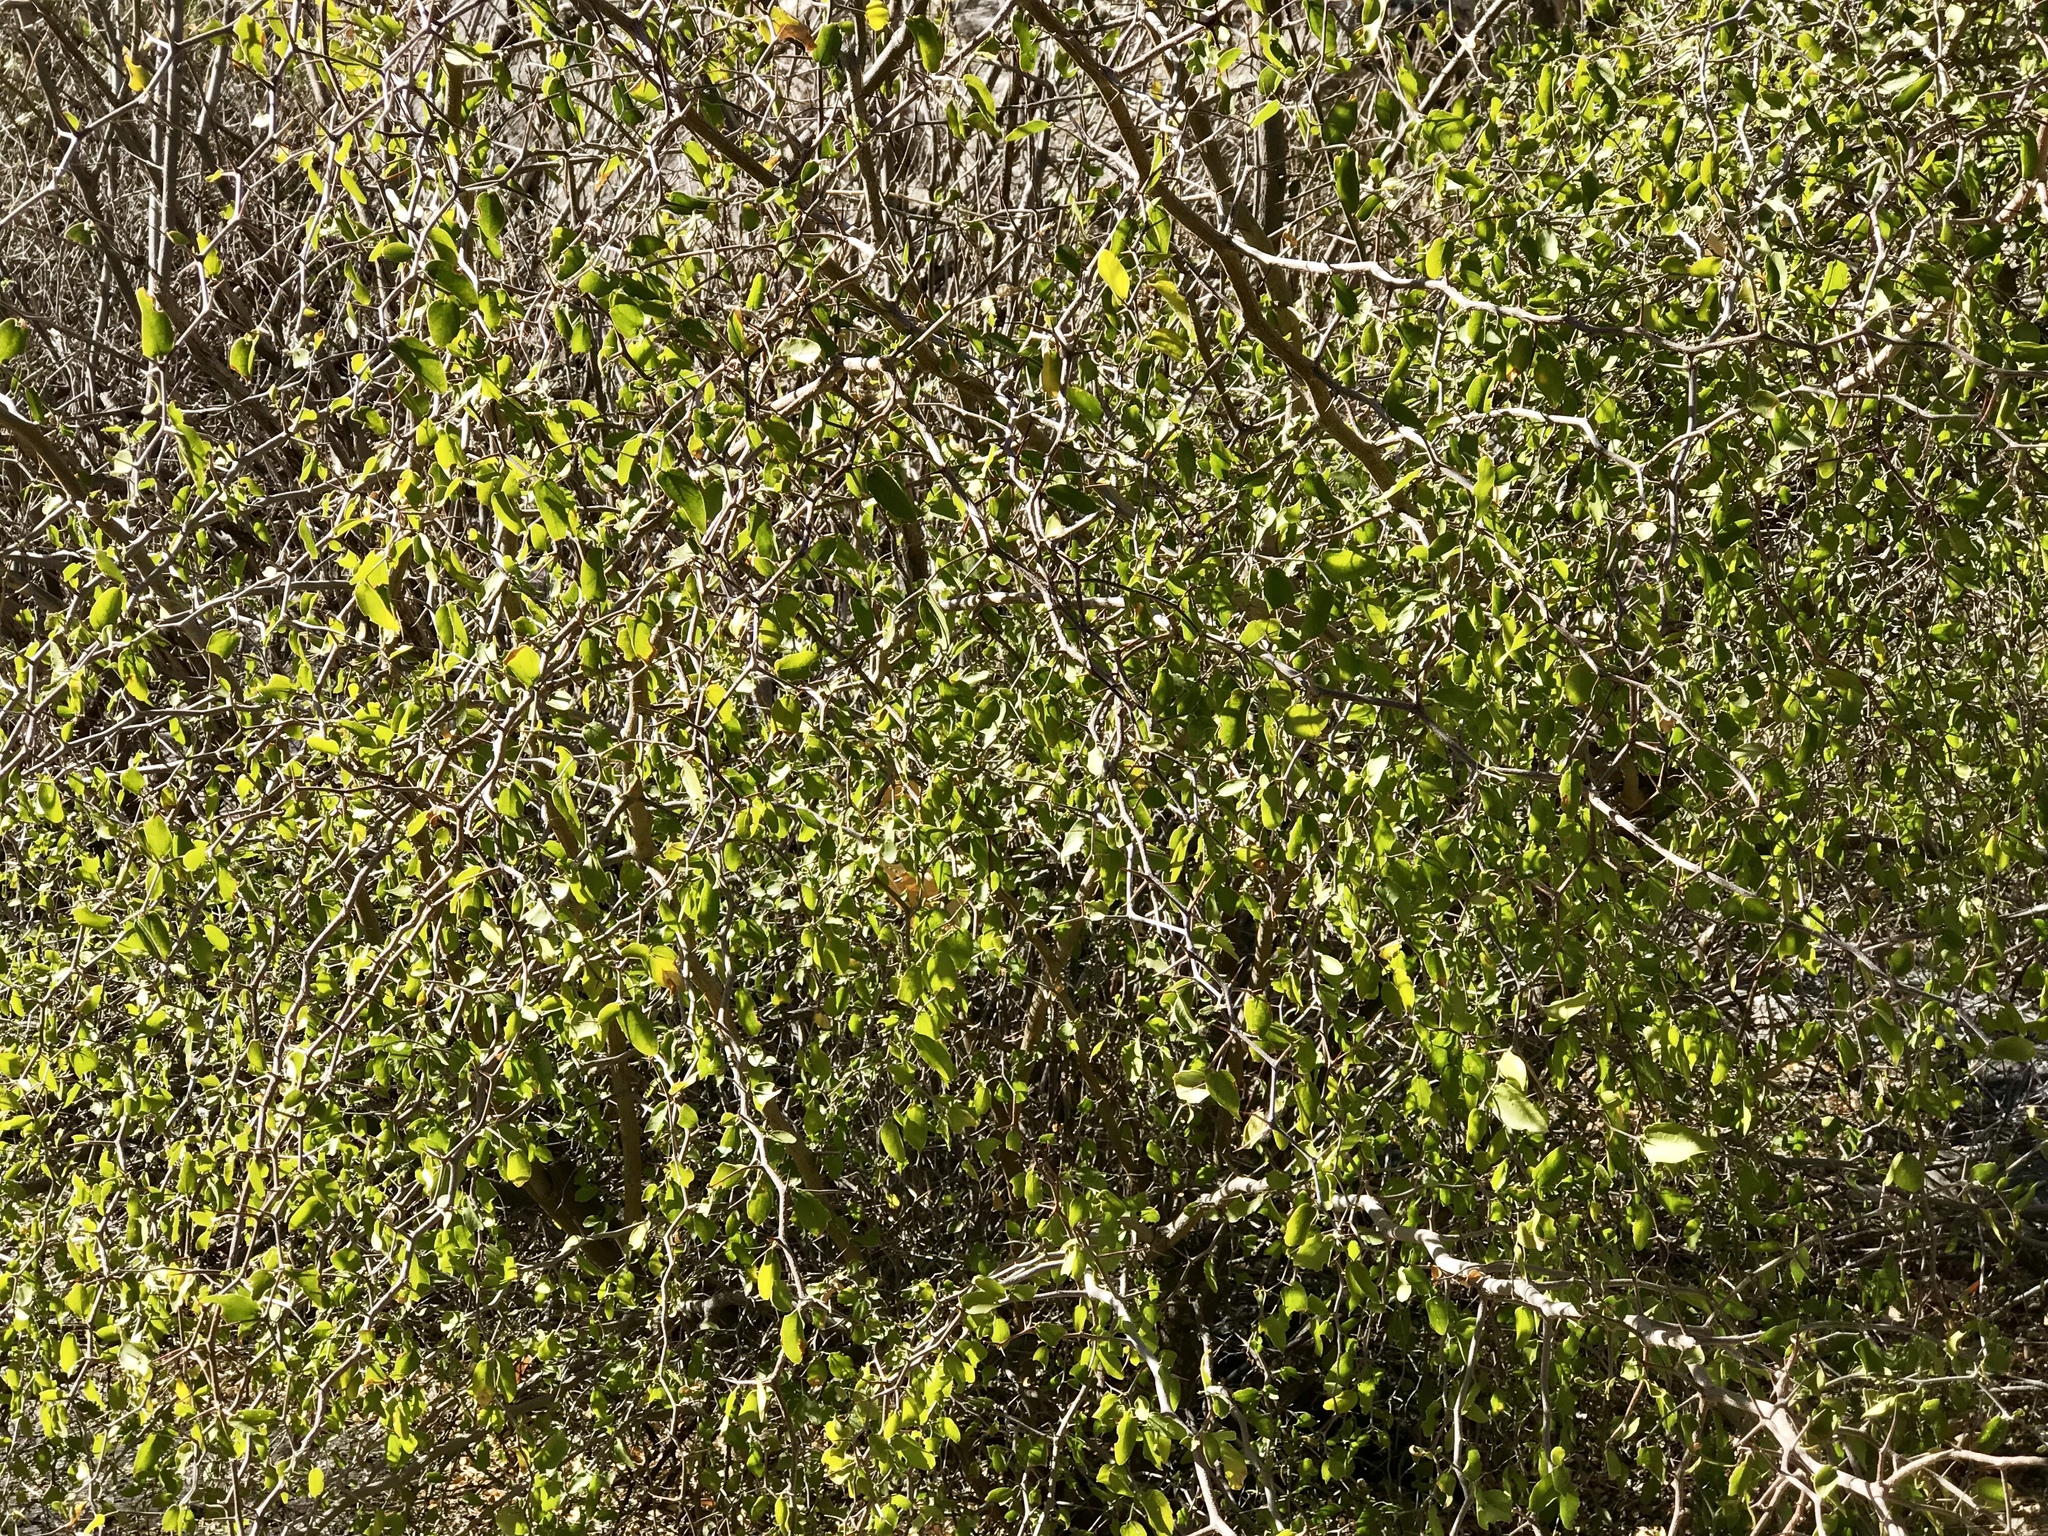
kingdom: Plantae
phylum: Tracheophyta
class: Magnoliopsida
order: Rosales
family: Cannabaceae
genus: Celtis
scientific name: Celtis pallida
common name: Desert hackberry
